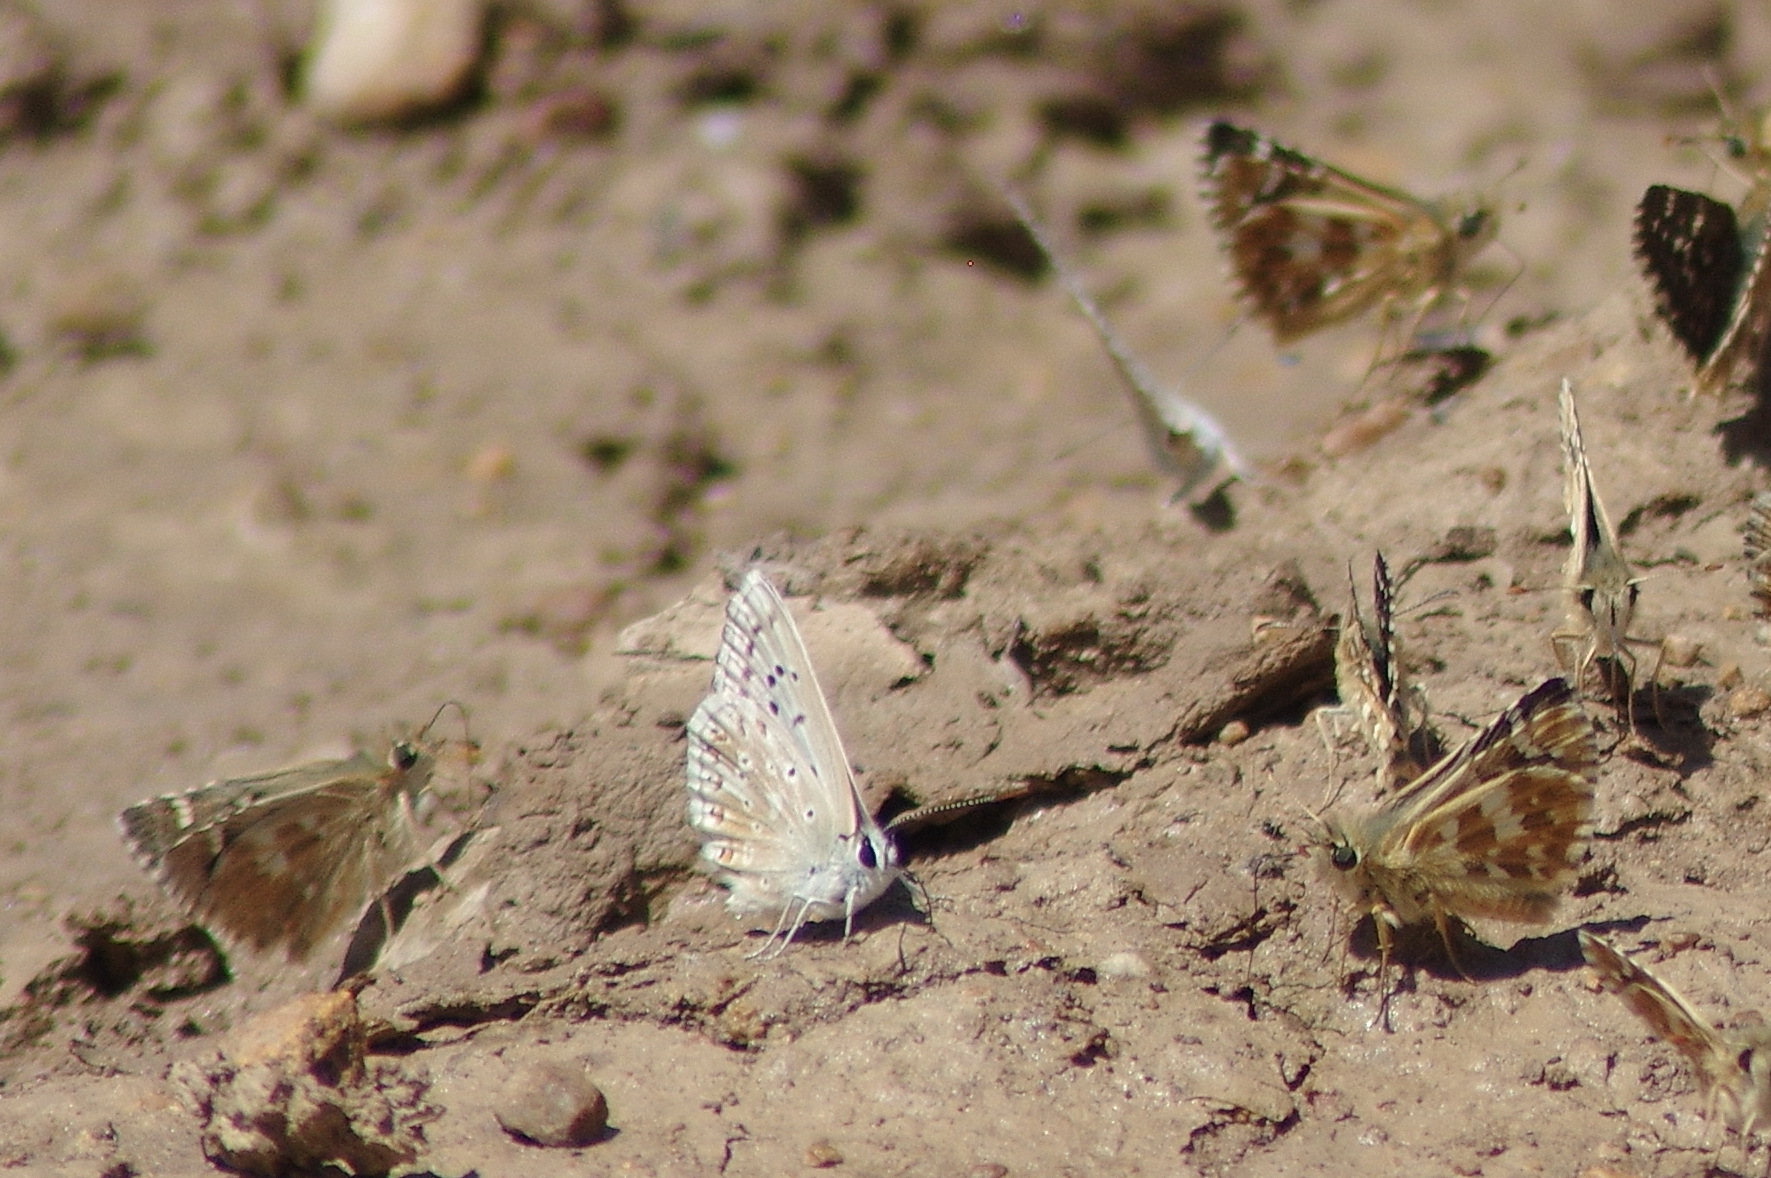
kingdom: Animalia
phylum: Arthropoda
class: Insecta
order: Lepidoptera
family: Lycaenidae
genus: Lysandra
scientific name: Lysandra albicans
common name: Spanish chalkhill blue
